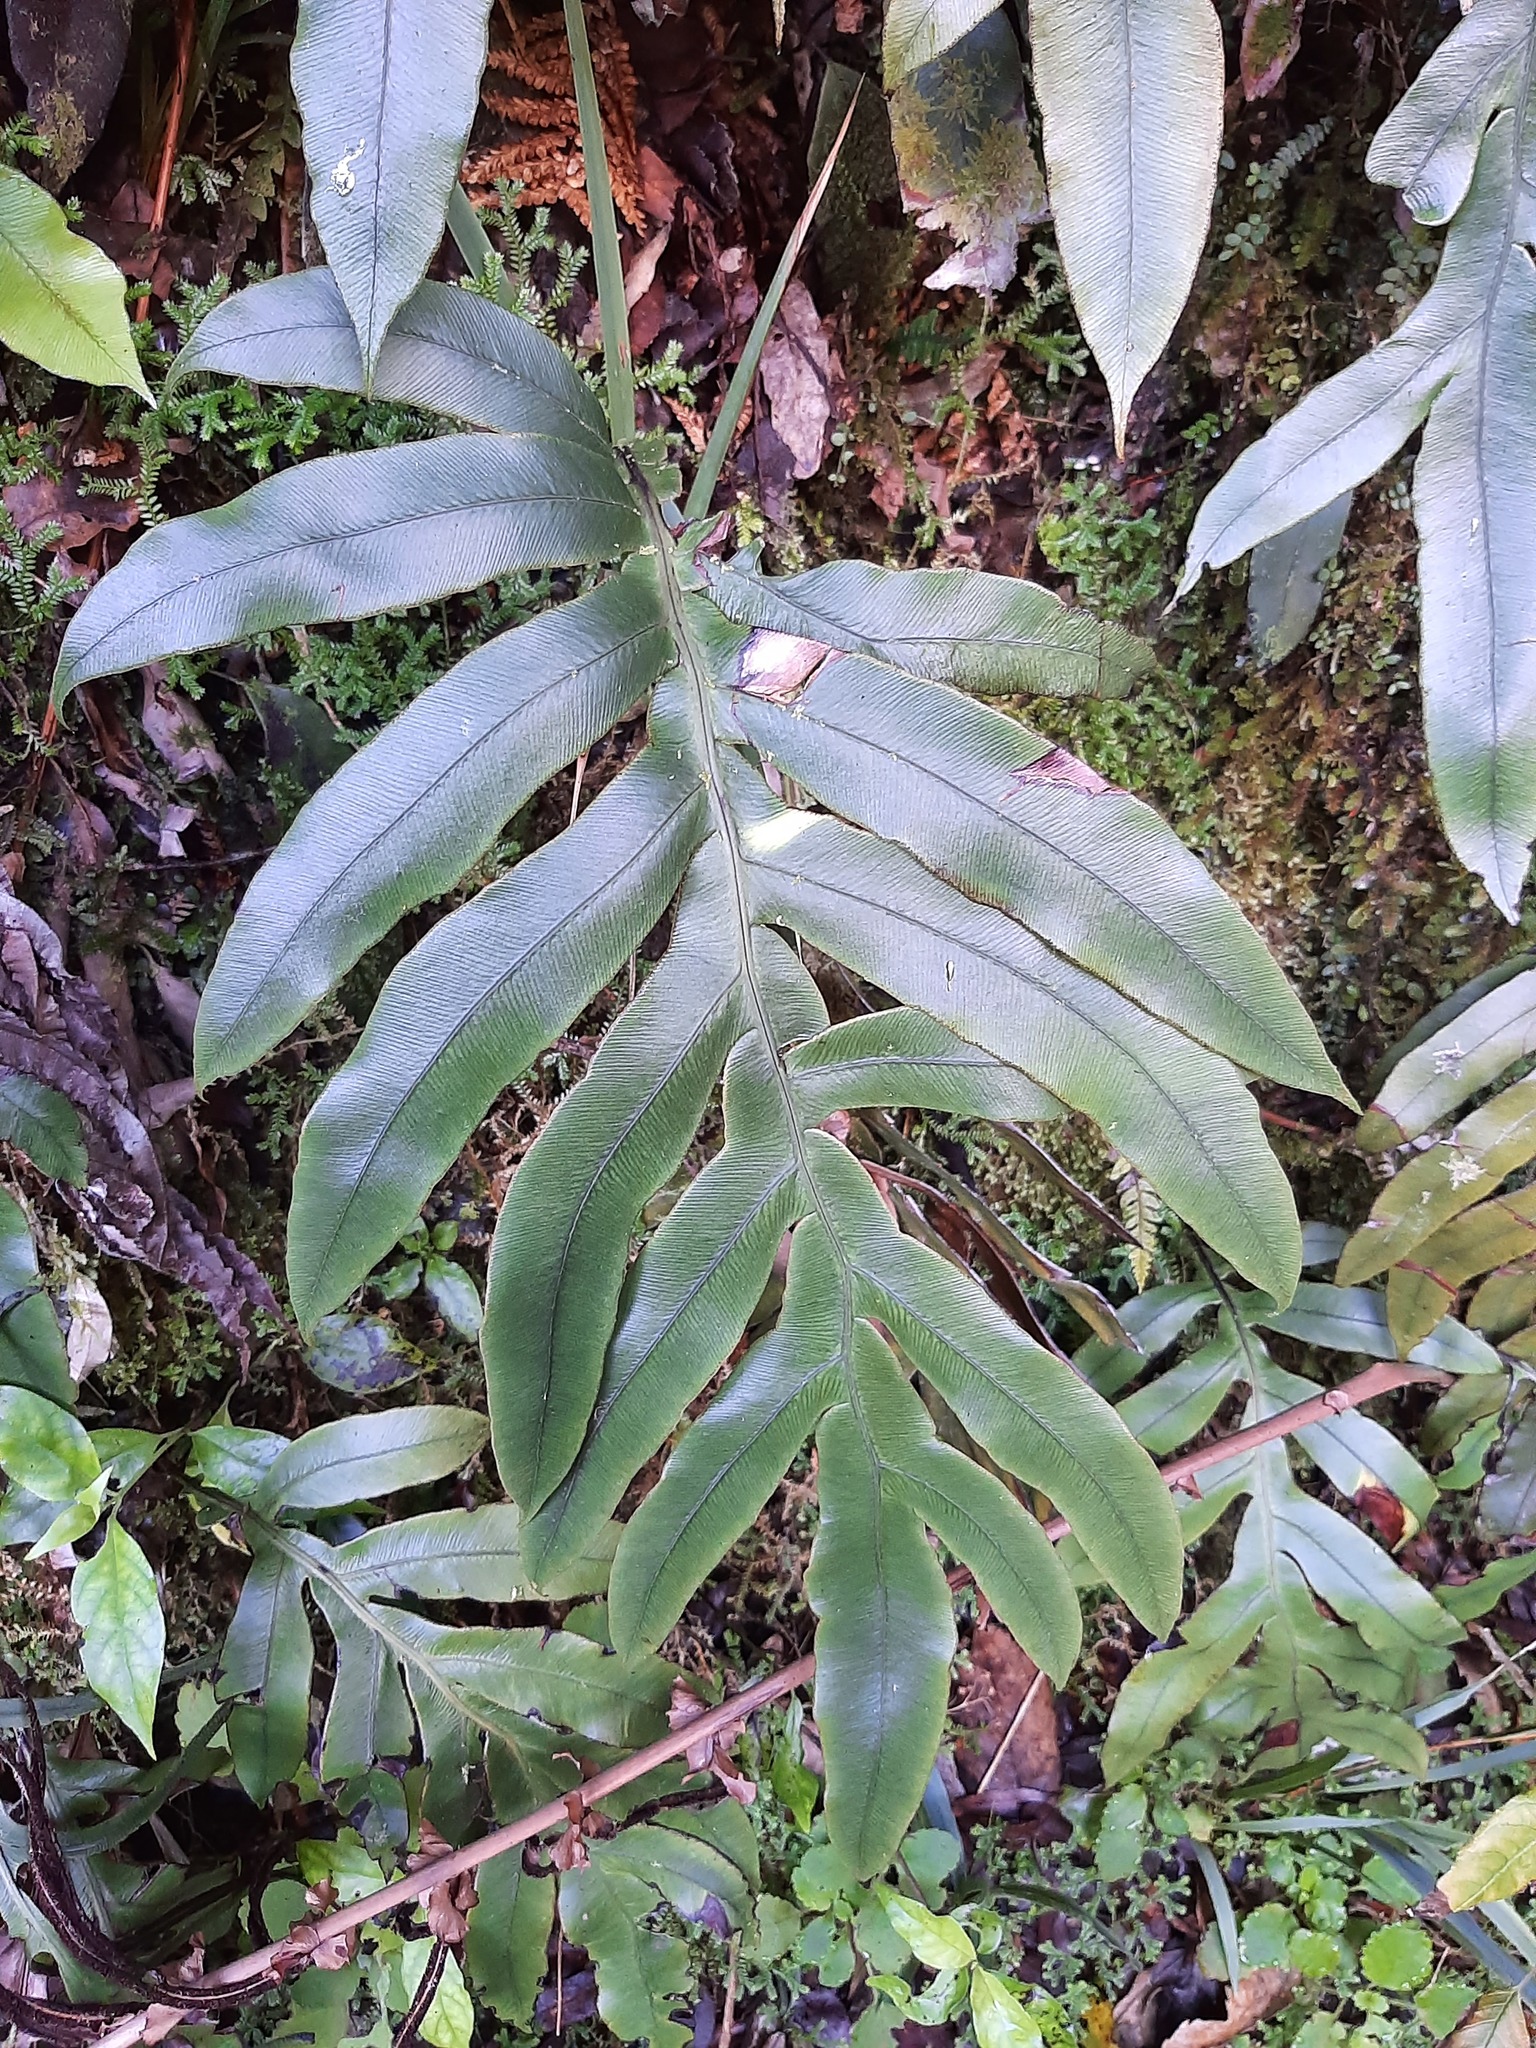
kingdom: Plantae
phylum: Tracheophyta
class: Polypodiopsida
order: Polypodiales
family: Blechnaceae
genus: Austroblechnum
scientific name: Austroblechnum colensoi
